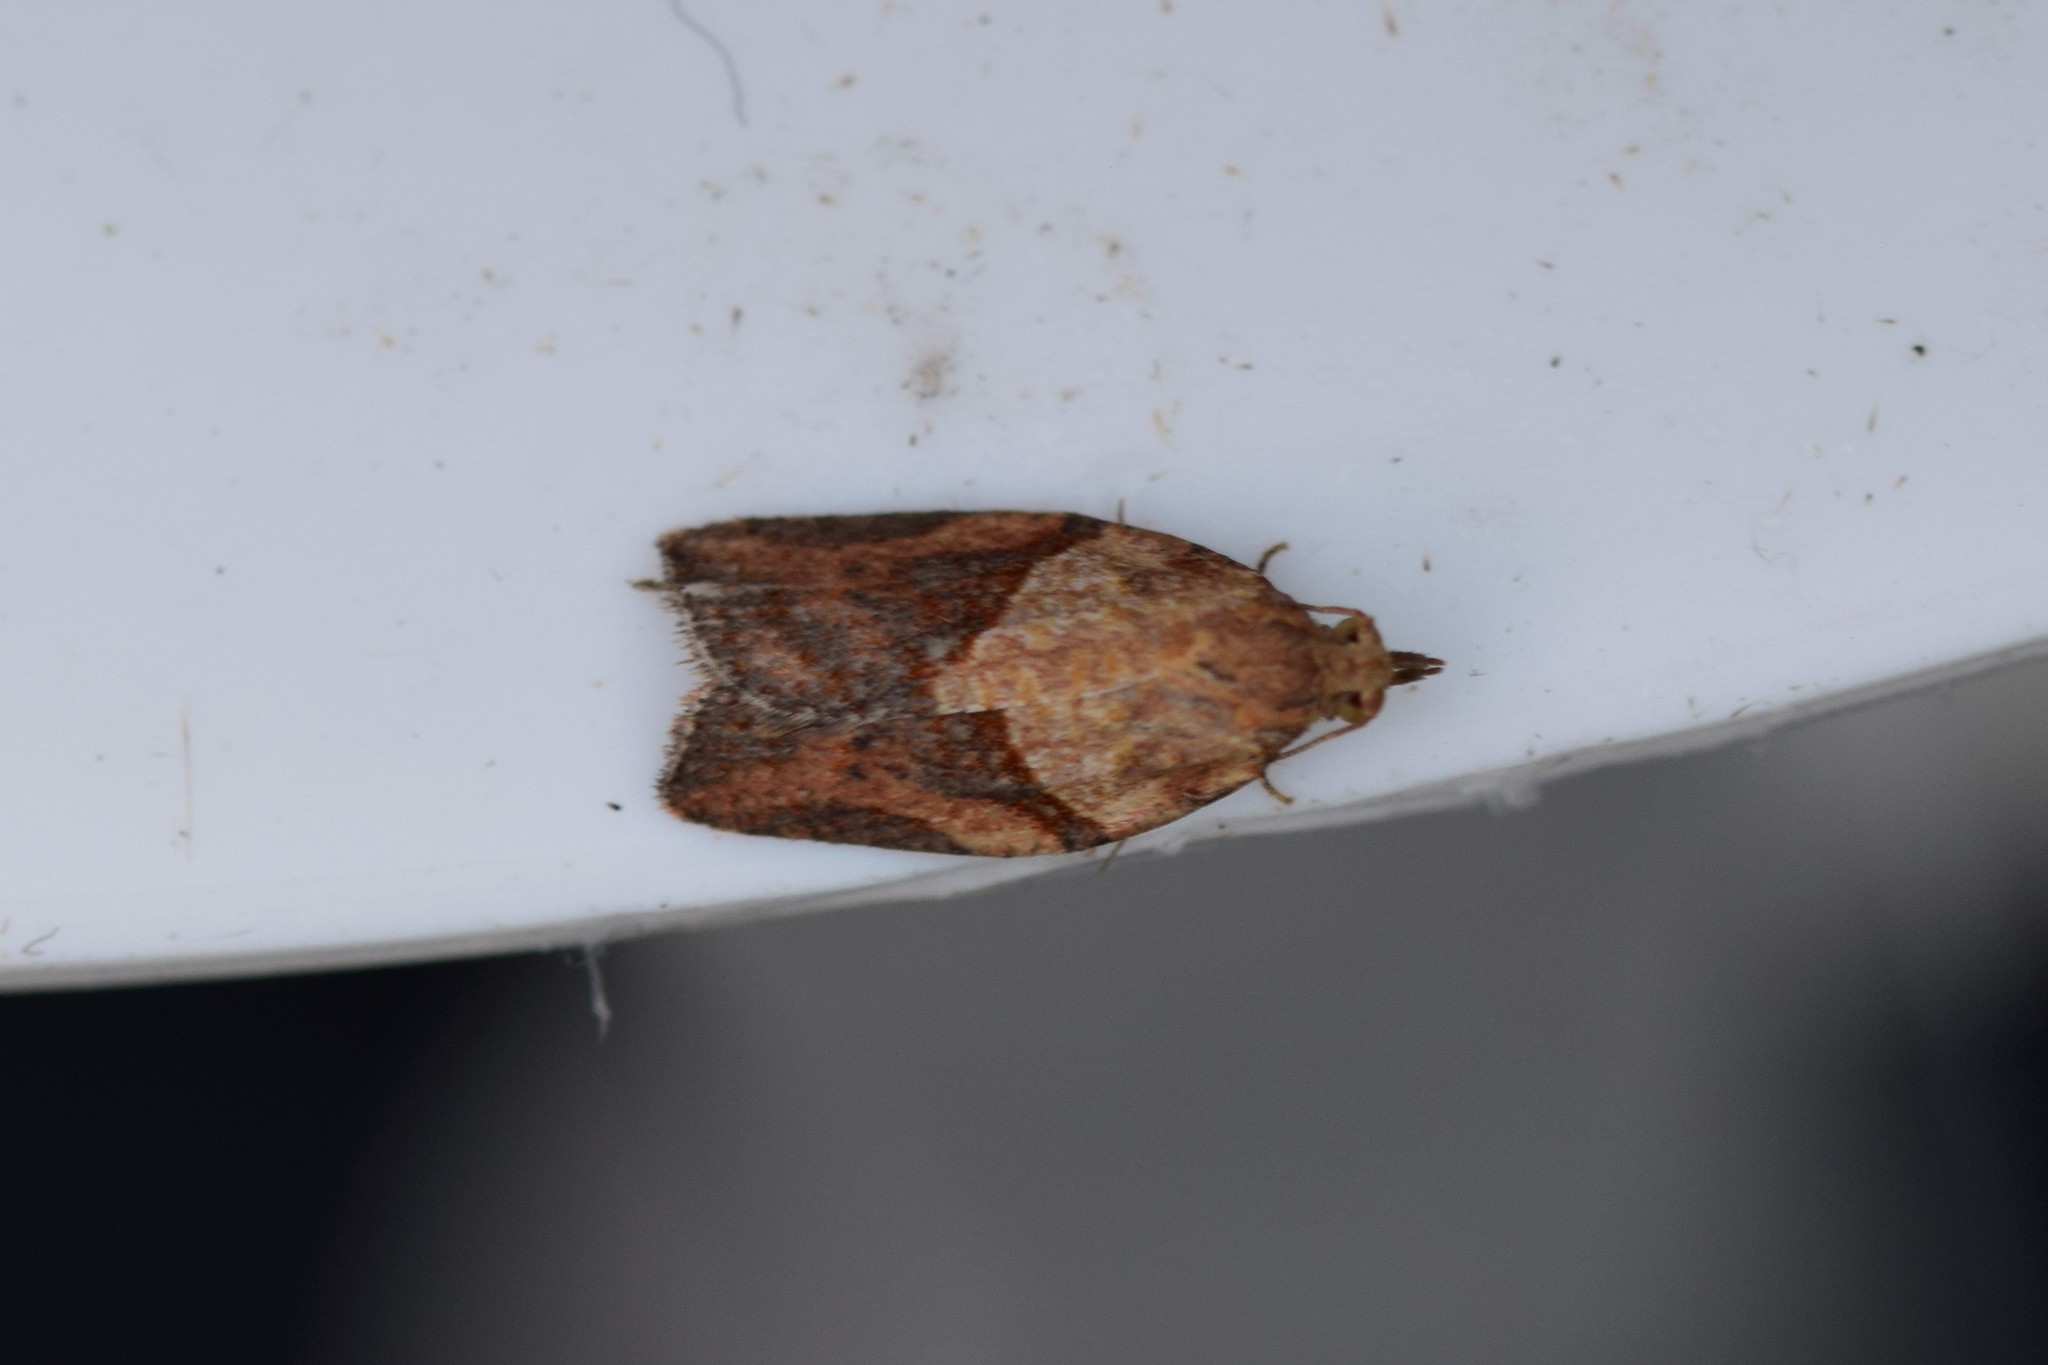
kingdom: Animalia
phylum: Arthropoda
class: Insecta
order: Lepidoptera
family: Tortricidae
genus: Epiphyas
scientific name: Epiphyas postvittana
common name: Light brown apple moth
